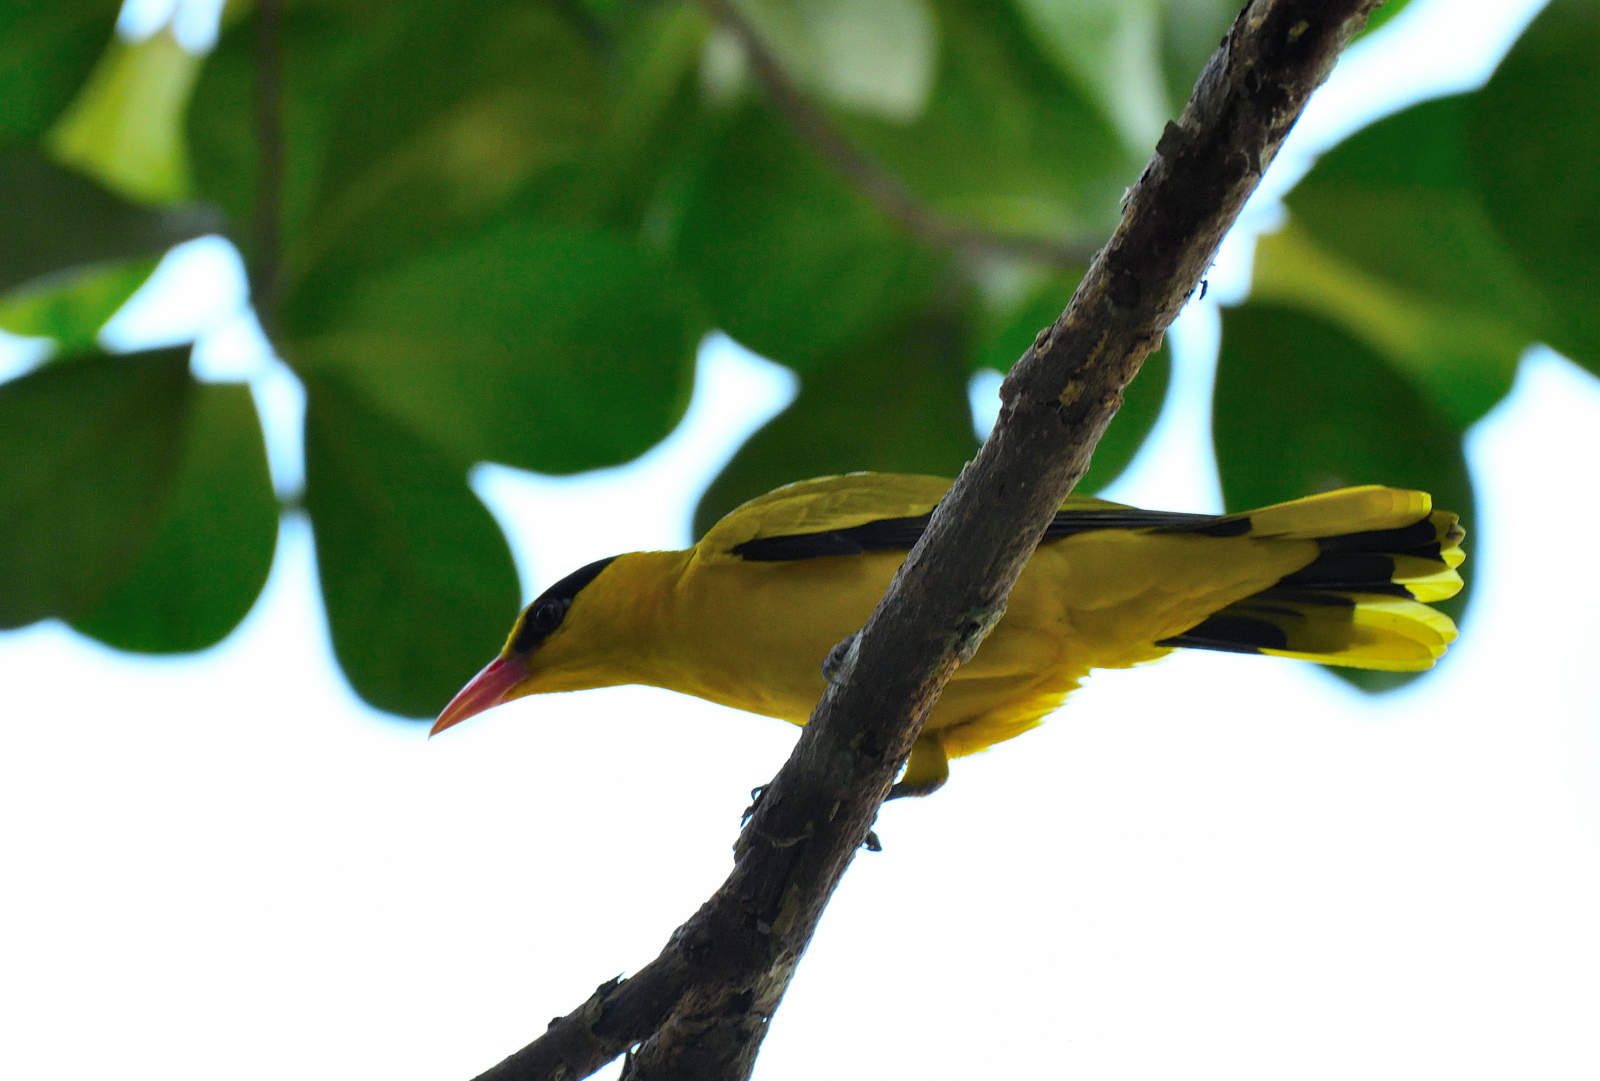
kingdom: Animalia
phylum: Chordata
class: Aves
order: Passeriformes
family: Oriolidae
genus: Oriolus
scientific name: Oriolus chinensis
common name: Black-naped oriole
